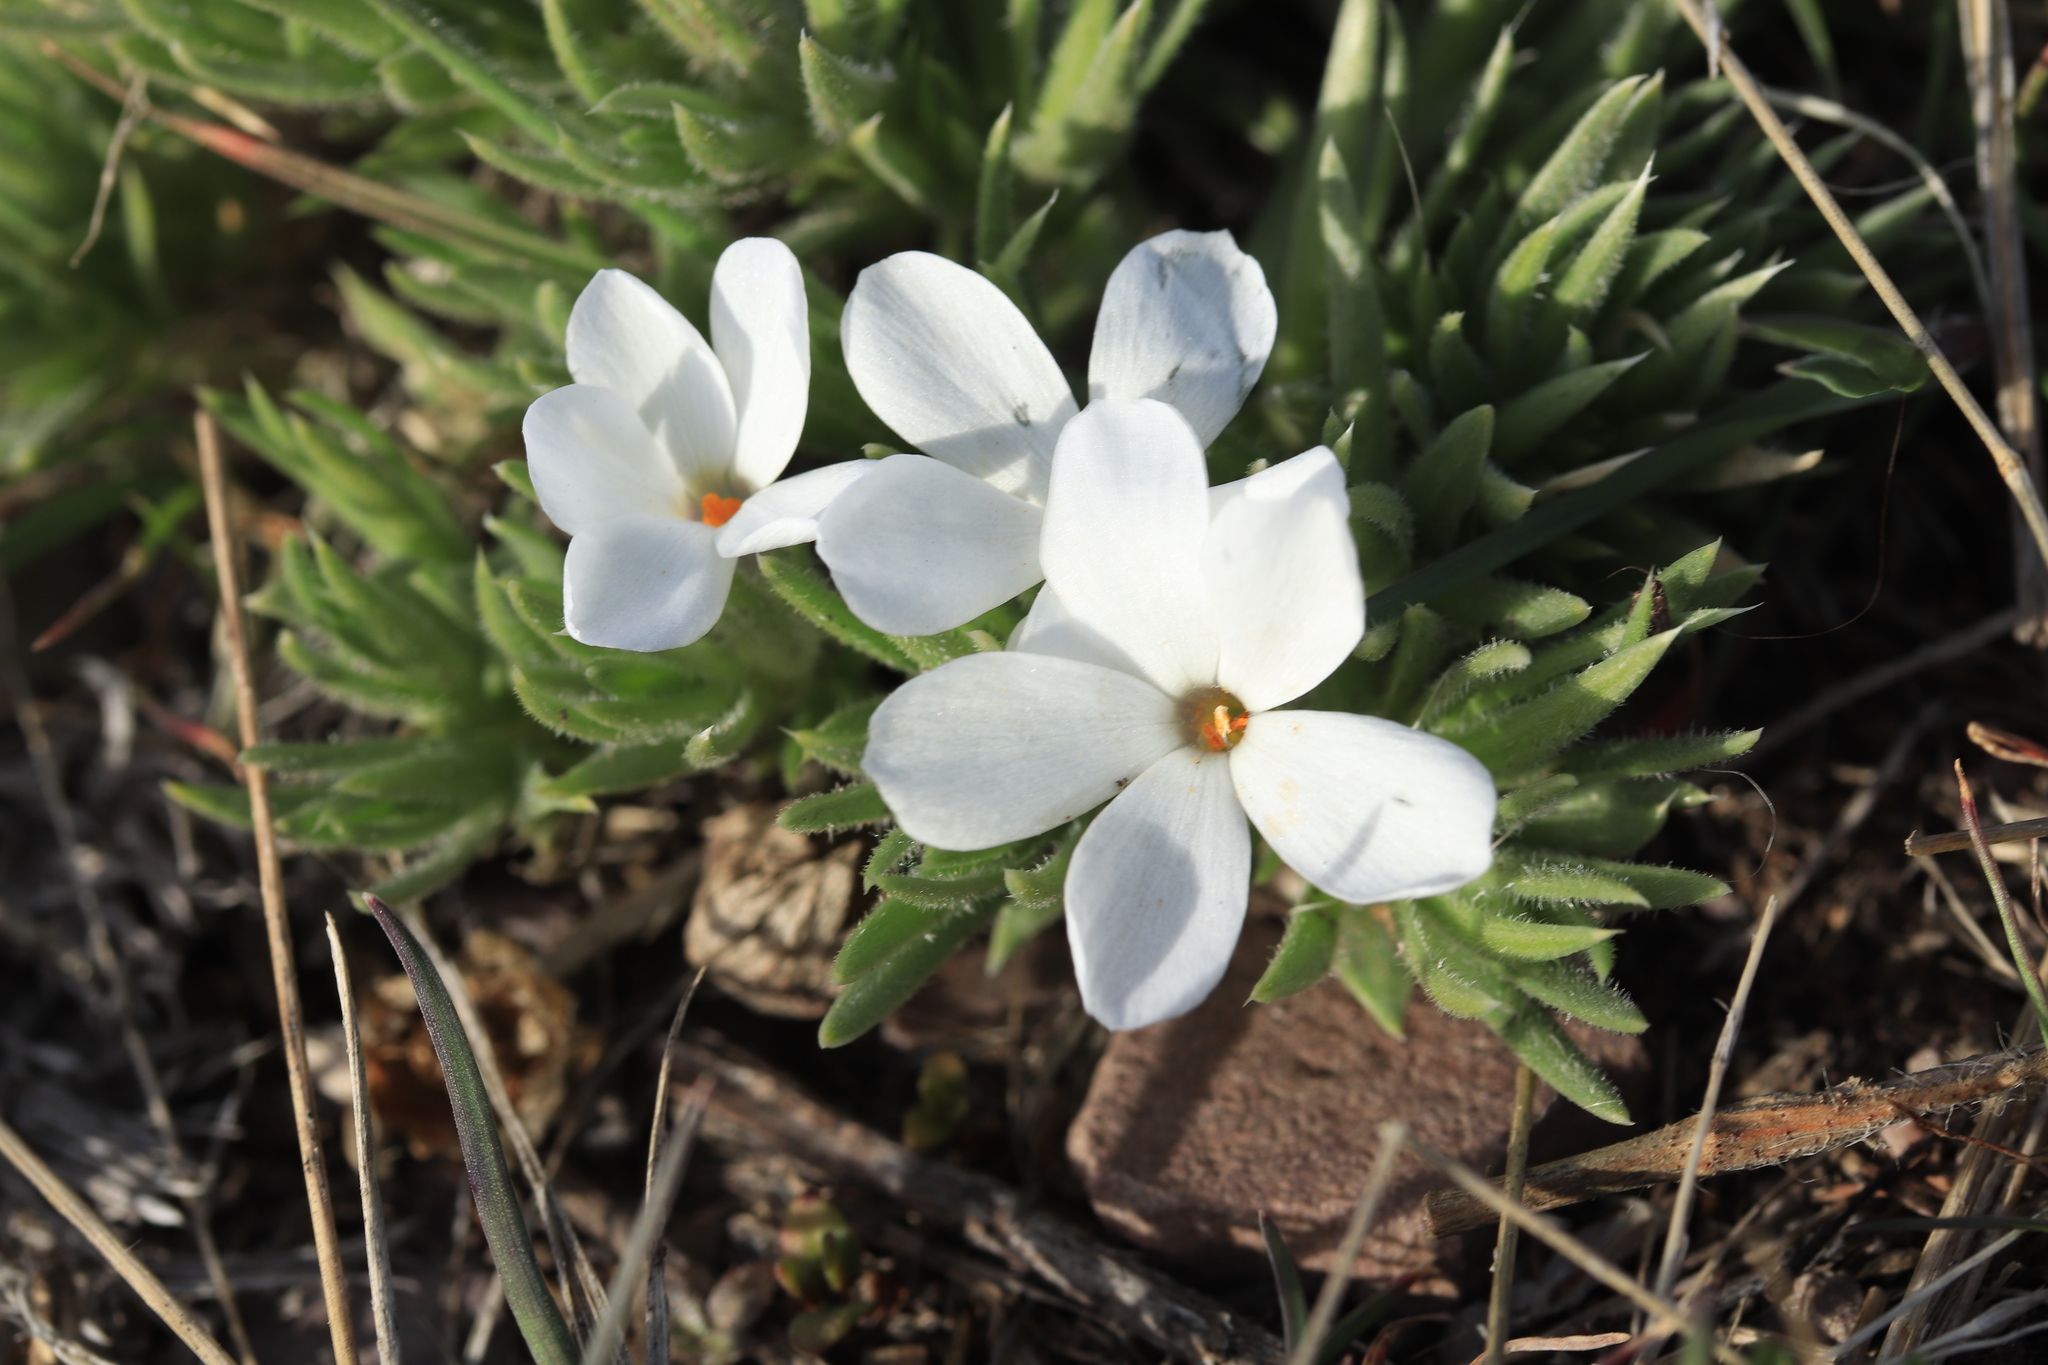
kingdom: Plantae
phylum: Tracheophyta
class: Magnoliopsida
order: Ericales
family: Polemoniaceae
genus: Phlox
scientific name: Phlox missoulensis
